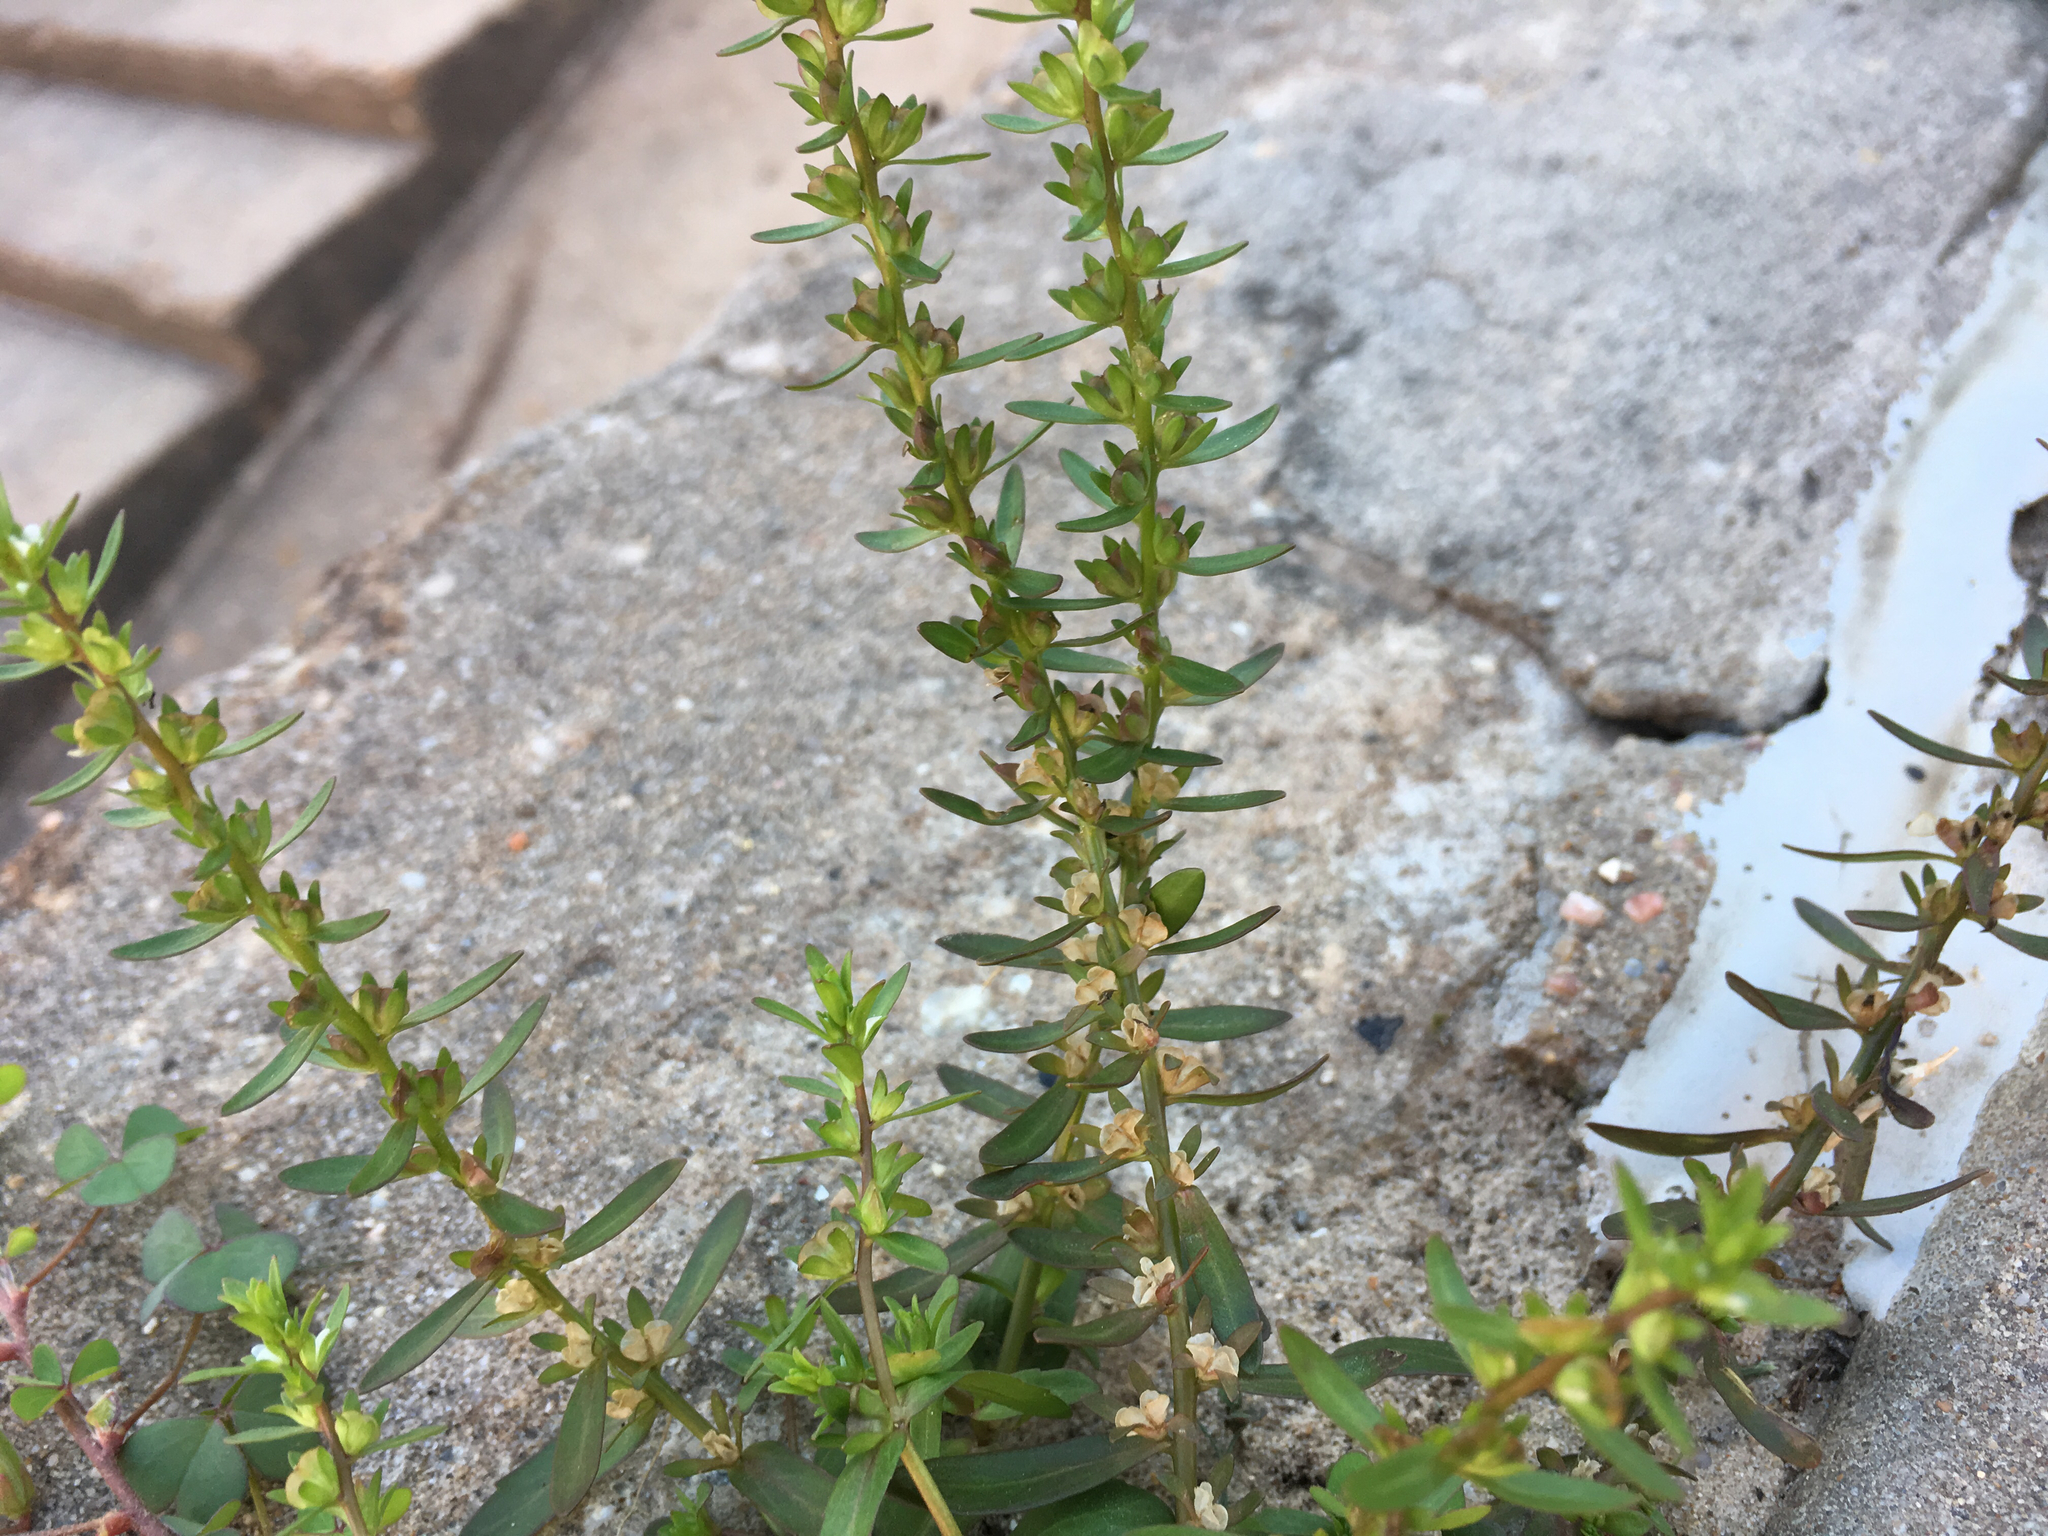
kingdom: Plantae
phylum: Tracheophyta
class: Magnoliopsida
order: Lamiales
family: Plantaginaceae
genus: Veronica
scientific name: Veronica peregrina
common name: Neckweed
